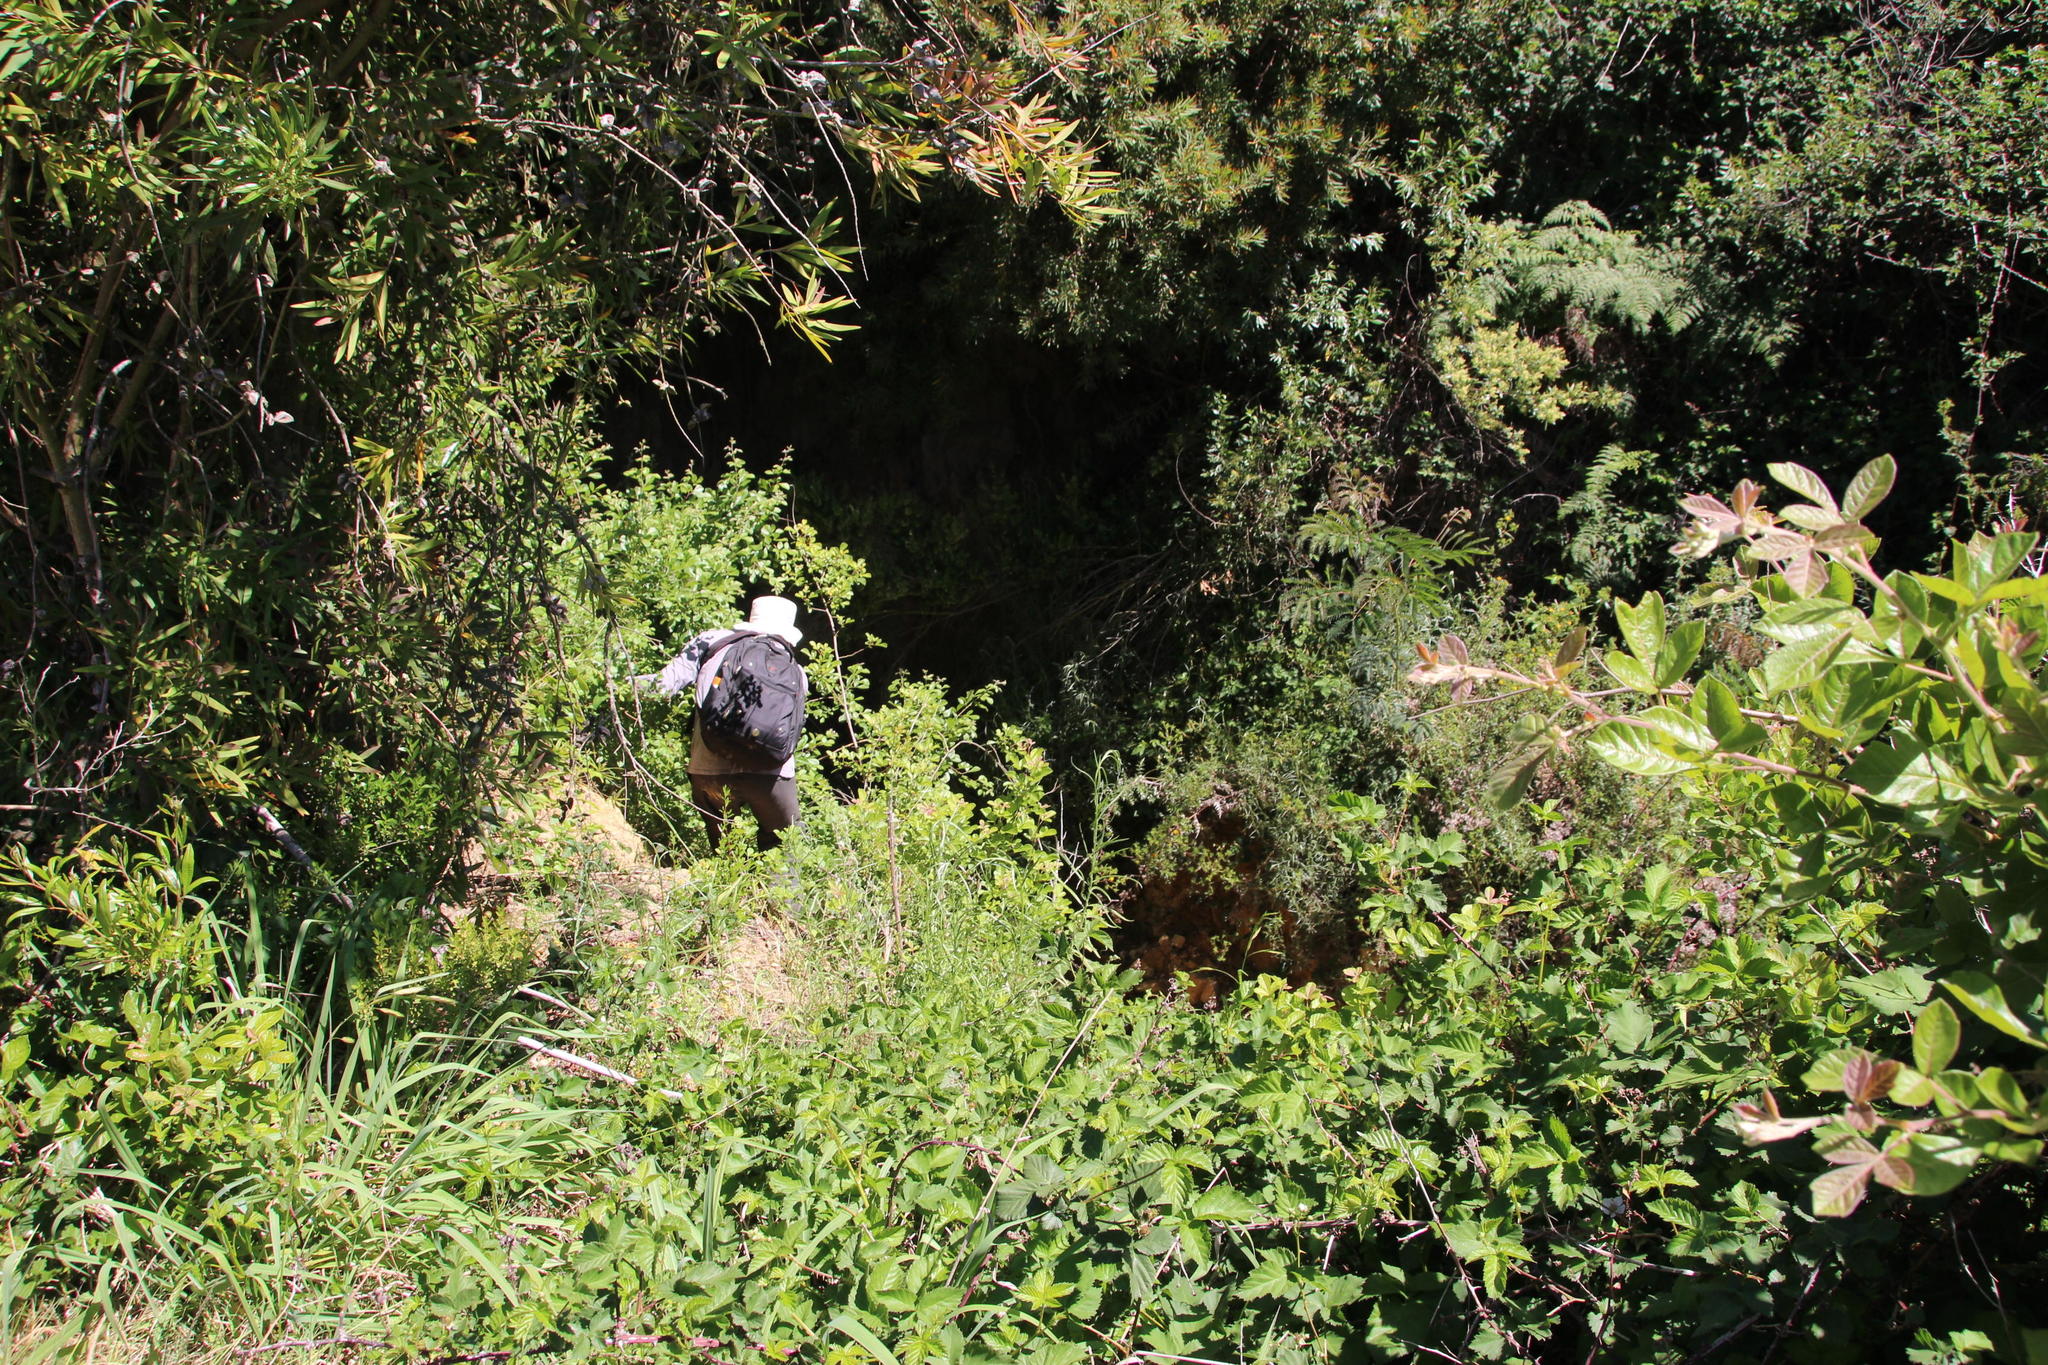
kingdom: Plantae
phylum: Tracheophyta
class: Magnoliopsida
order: Rosales
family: Rosaceae
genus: Rubus
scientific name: Rubus
